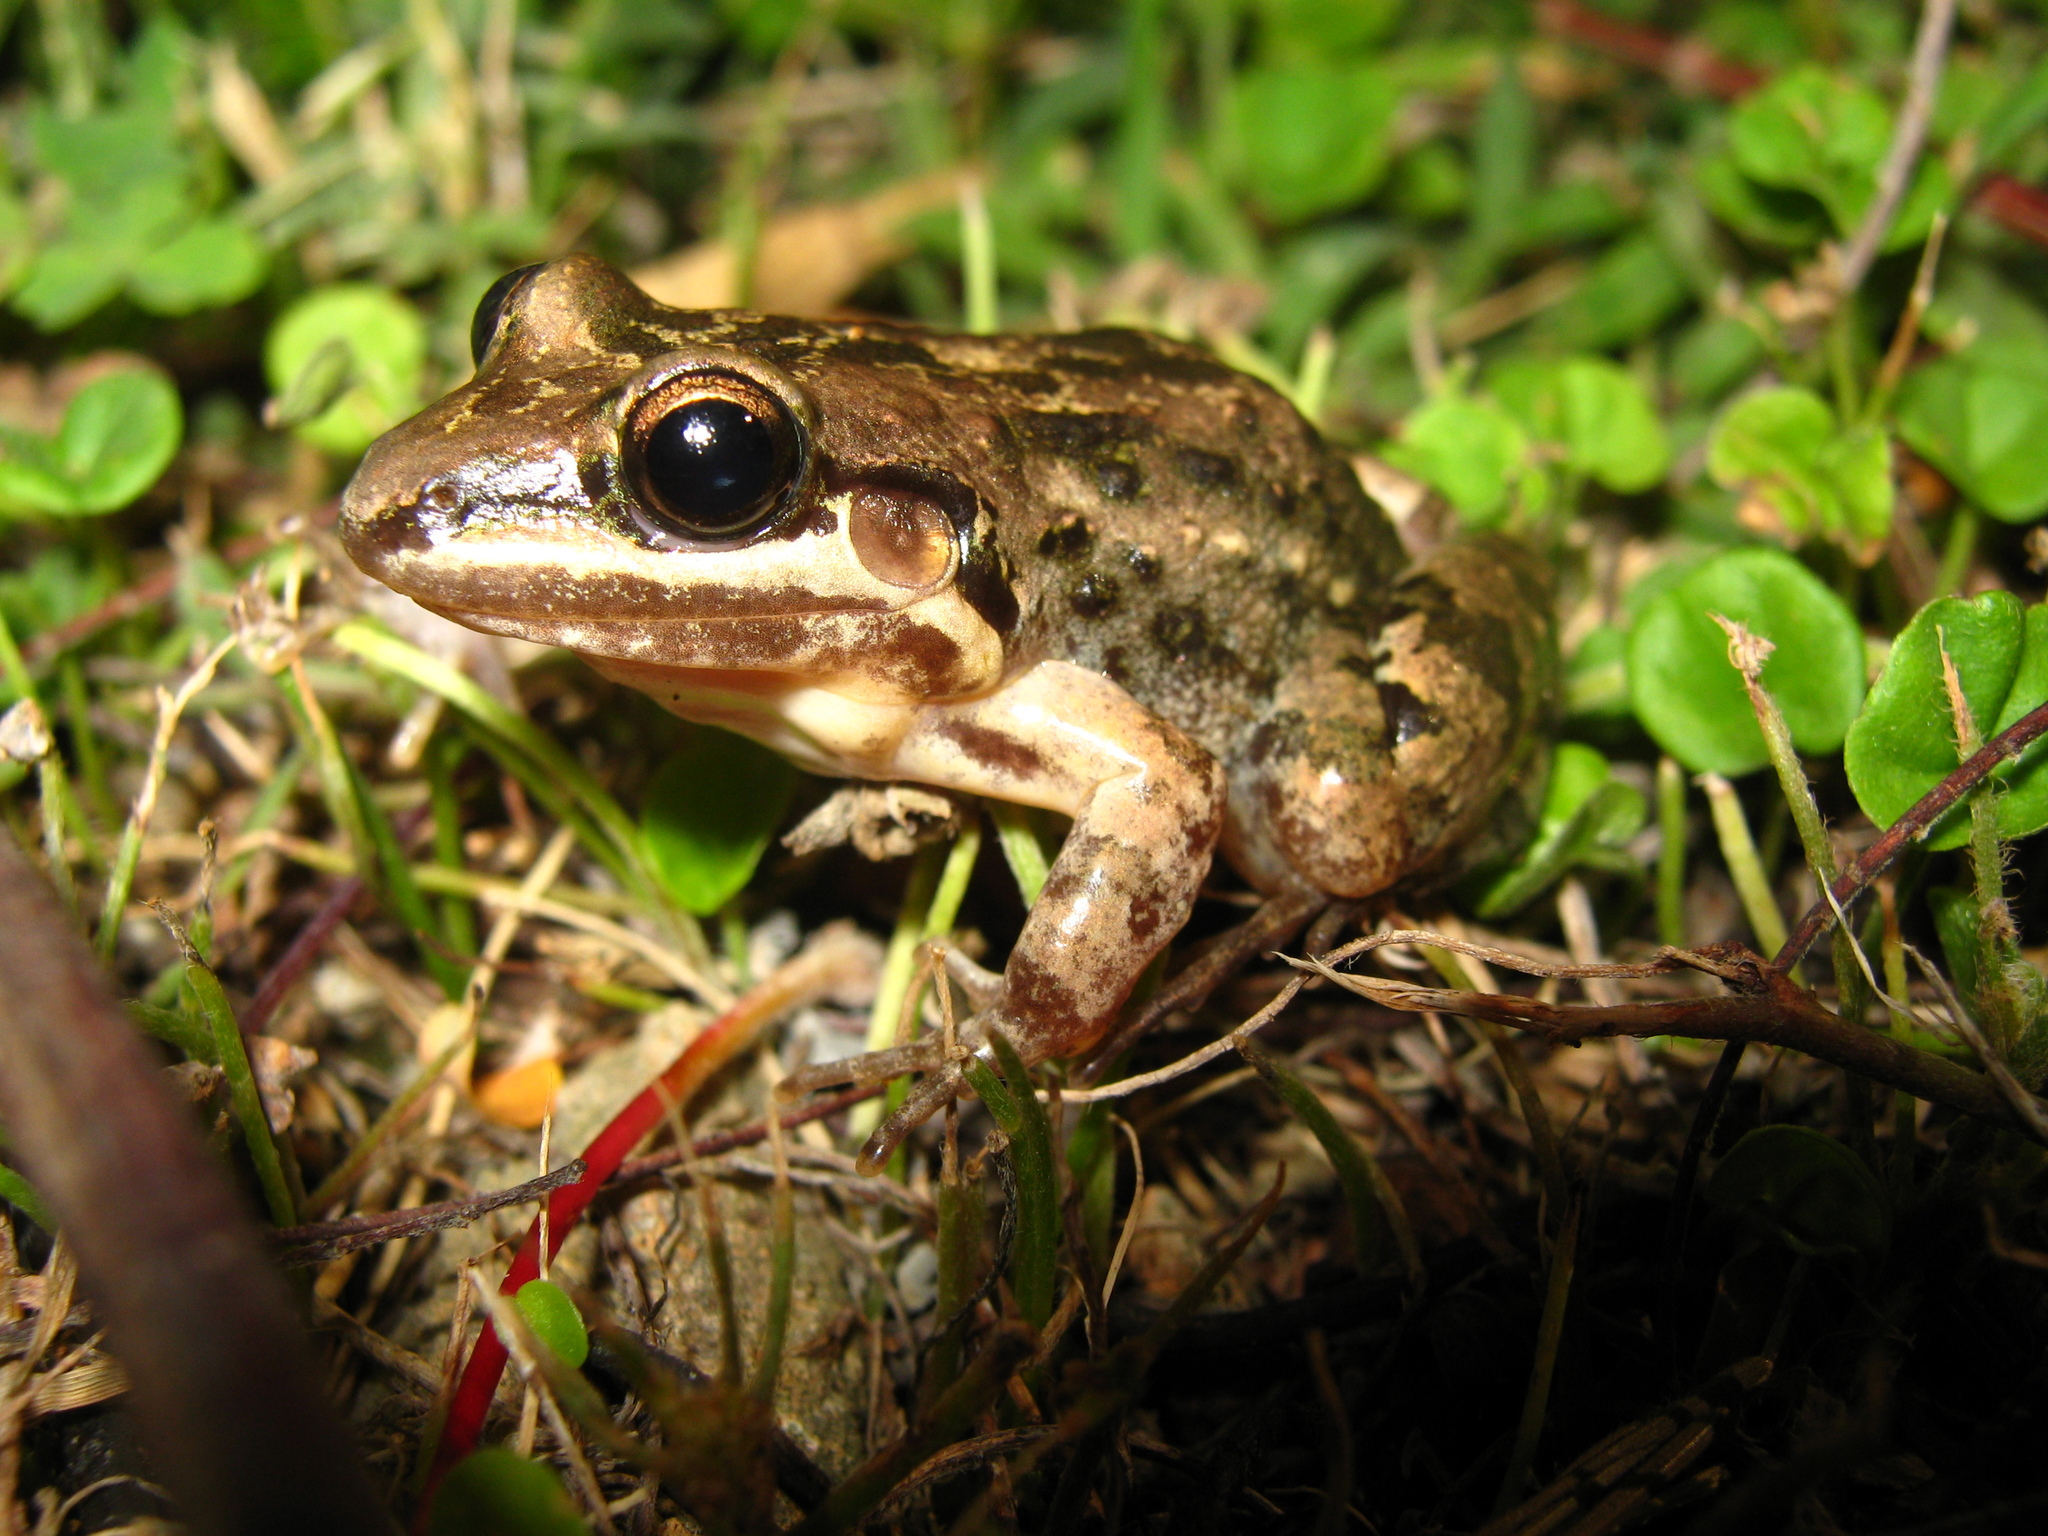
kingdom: Animalia
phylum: Chordata
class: Amphibia
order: Anura
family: Leptodactylidae
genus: Leptodactylus
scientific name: Leptodactylus fragilis
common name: Mexican white-lipped frog
